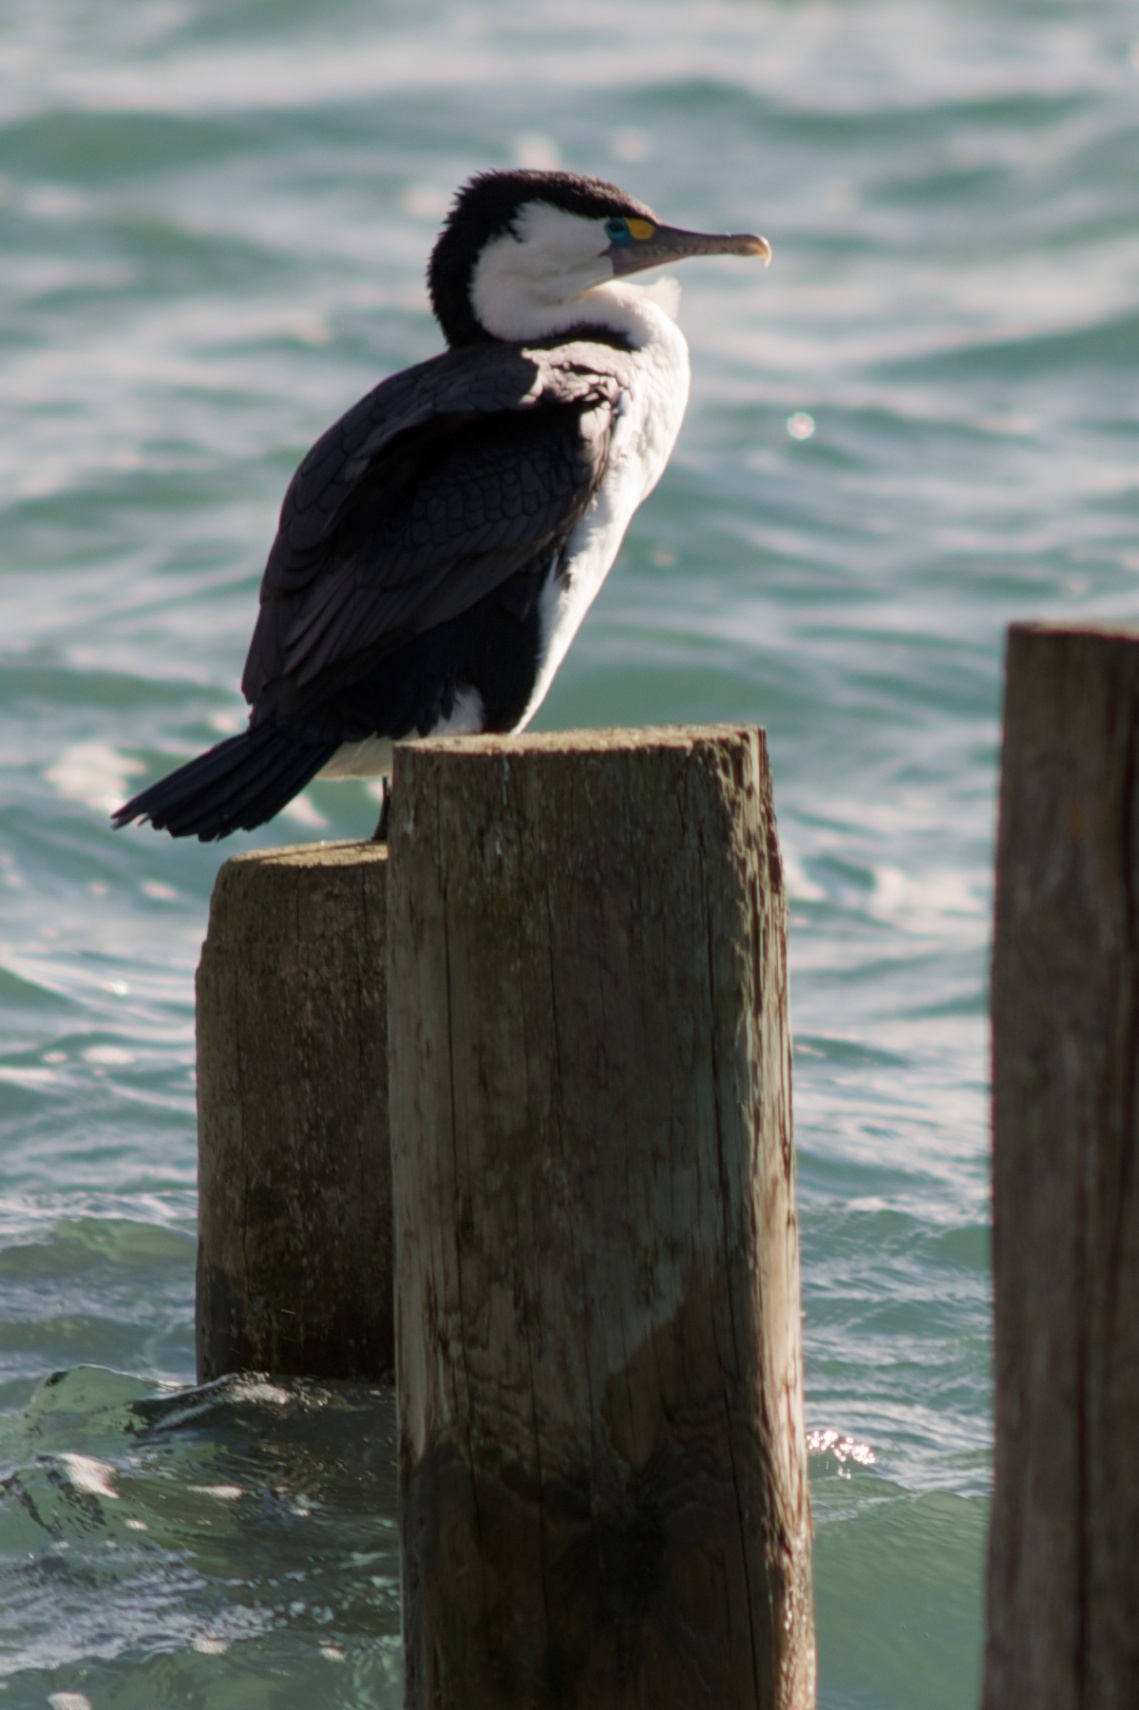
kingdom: Animalia
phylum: Chordata
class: Aves
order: Suliformes
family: Phalacrocoracidae
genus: Phalacrocorax
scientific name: Phalacrocorax varius
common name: Pied cormorant
